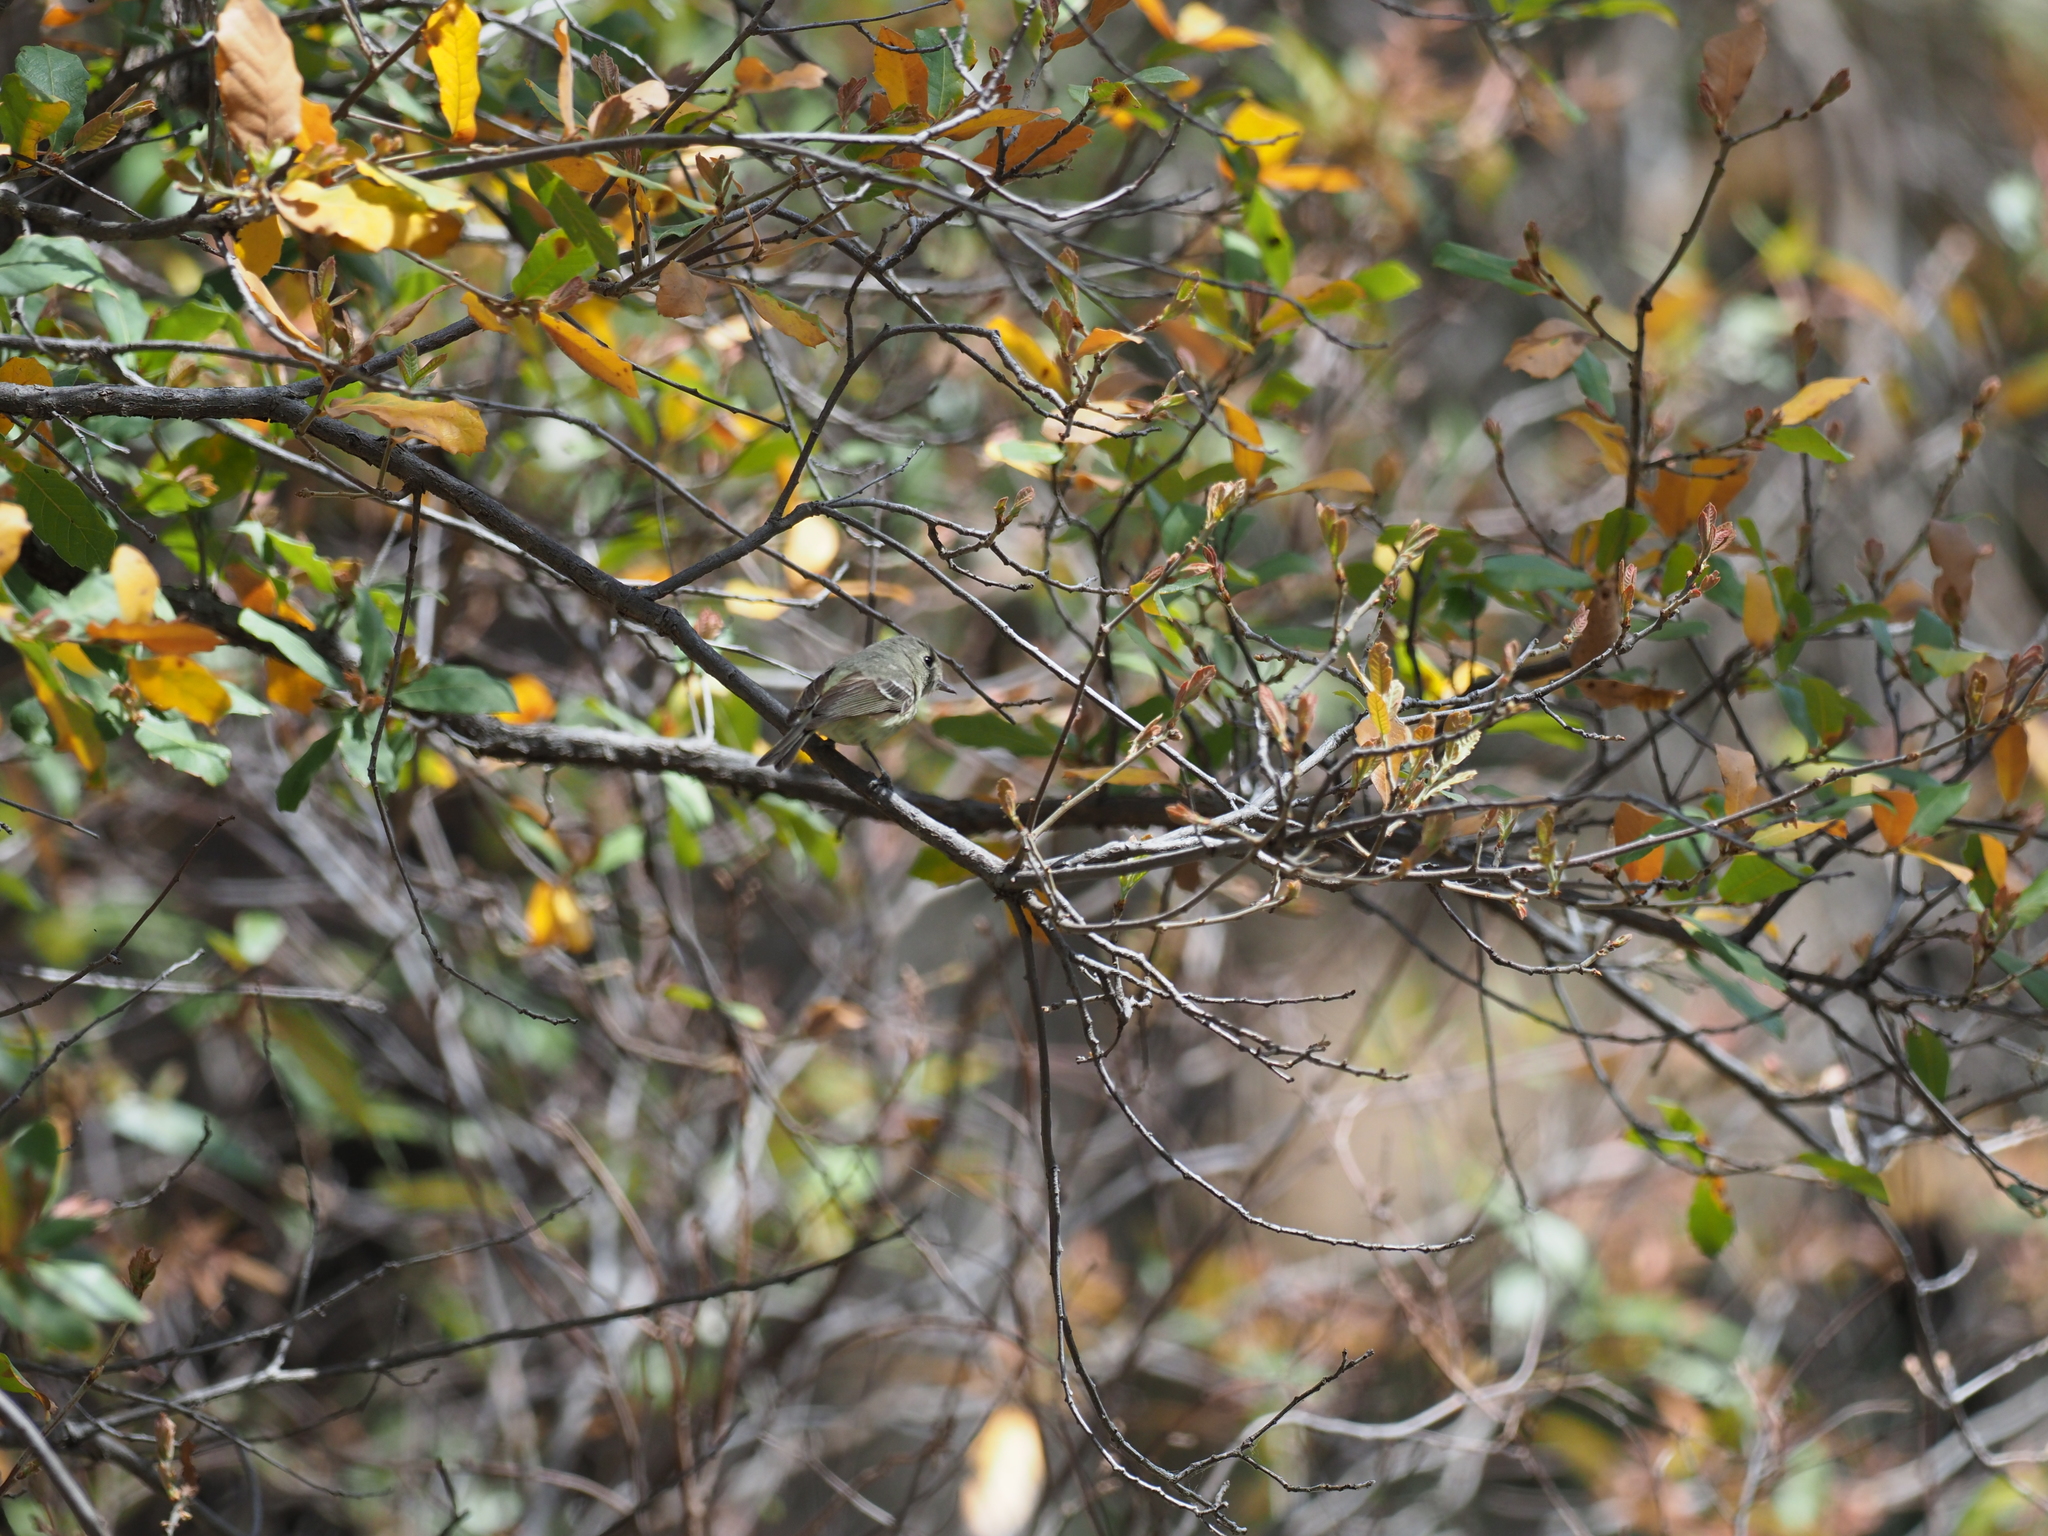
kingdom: Animalia
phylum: Chordata
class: Aves
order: Passeriformes
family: Vireonidae
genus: Vireo
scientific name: Vireo huttoni
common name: Hutton's vireo
